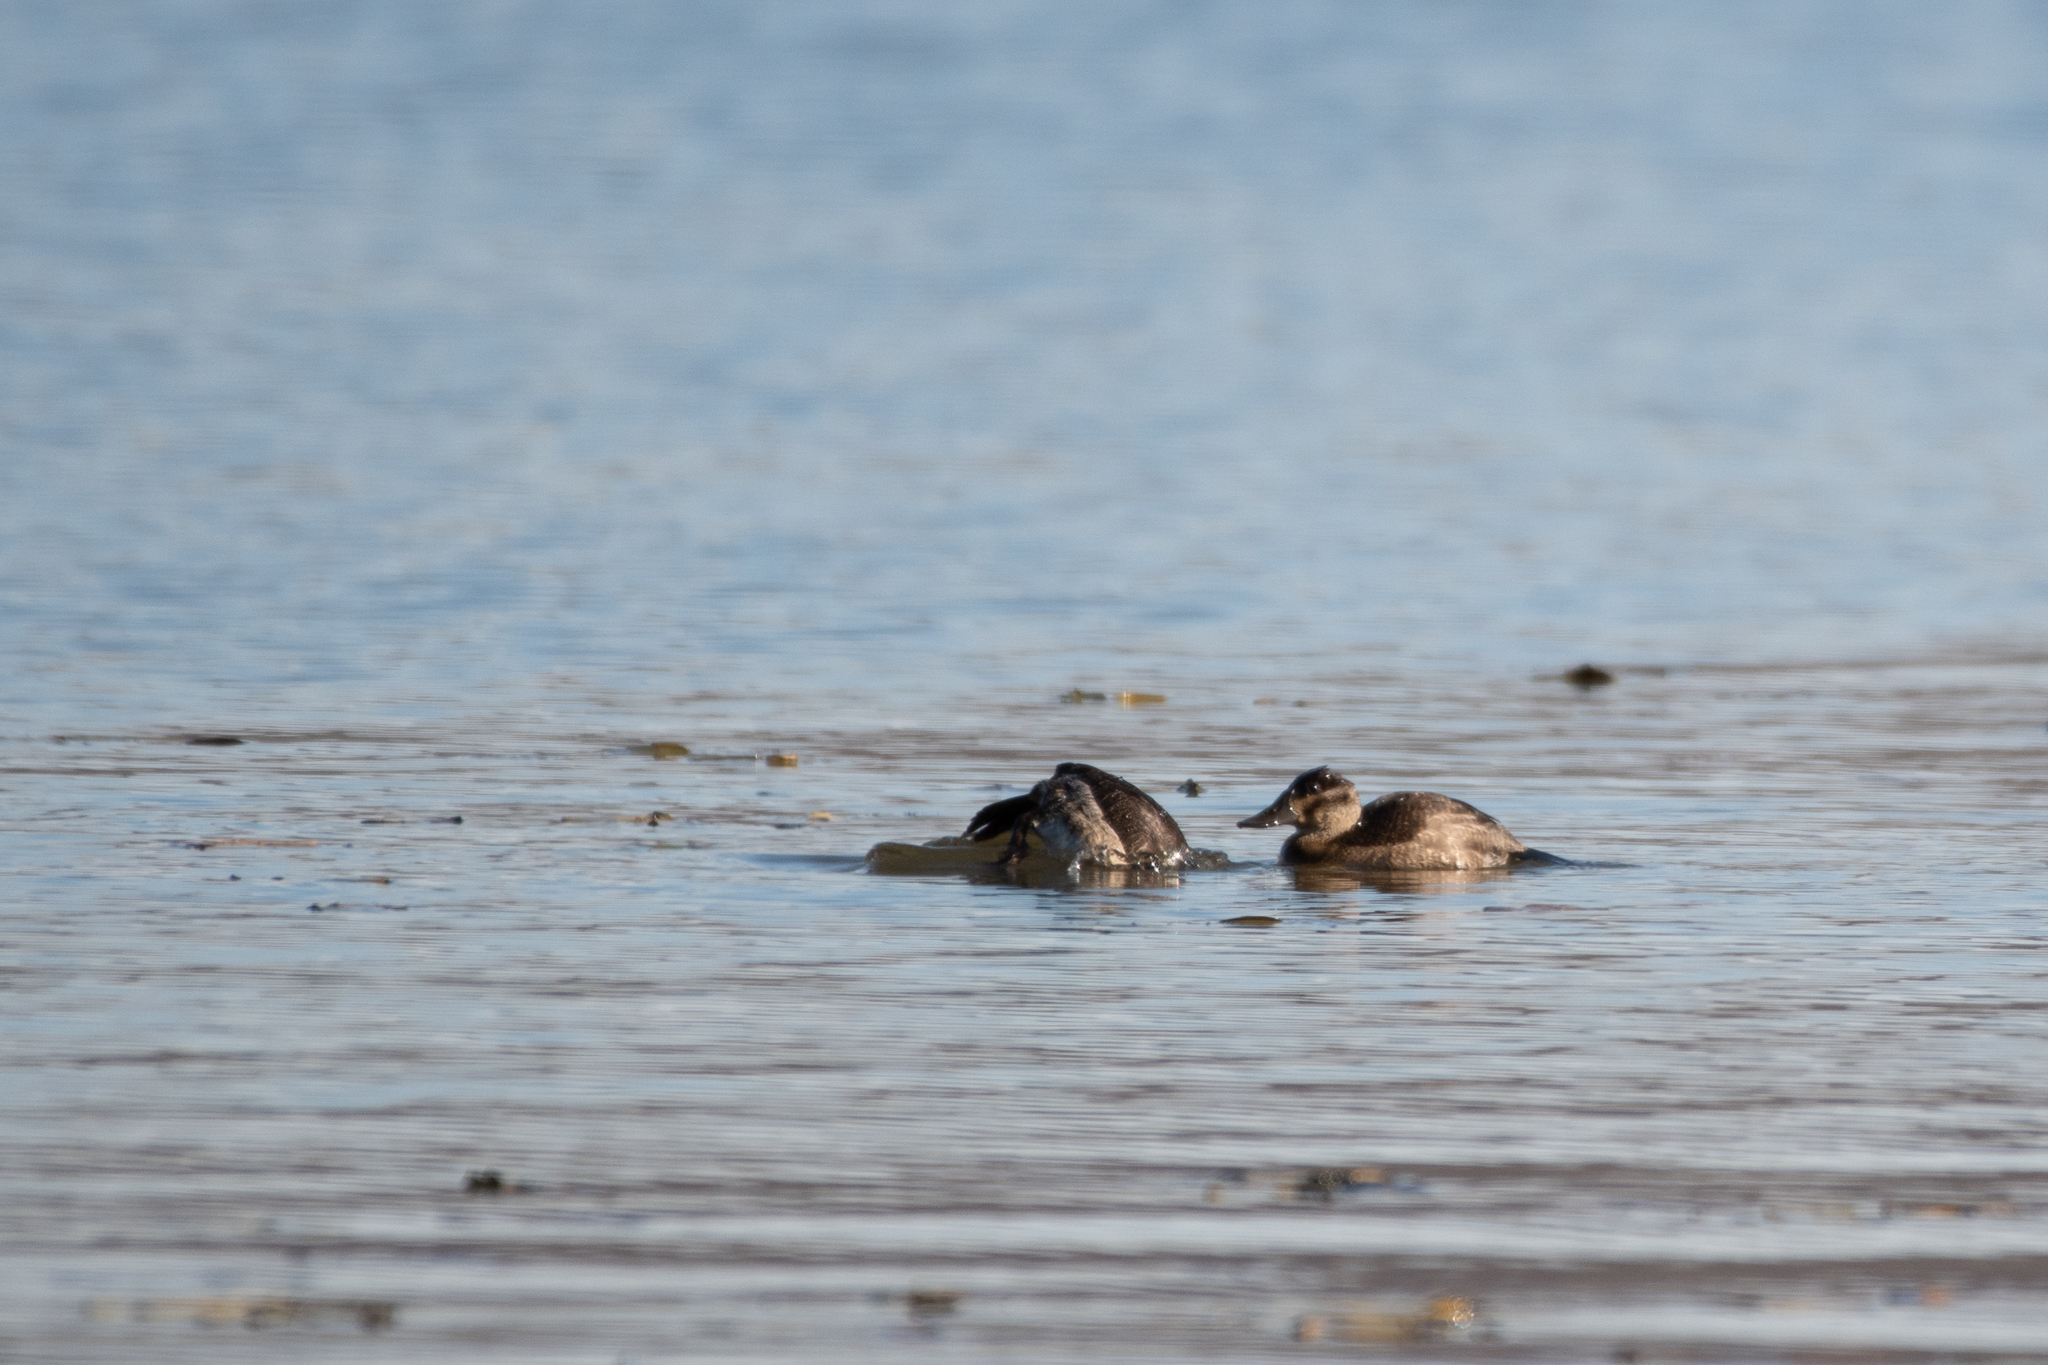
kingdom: Animalia
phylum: Chordata
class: Aves
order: Anseriformes
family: Anatidae
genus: Oxyura
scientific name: Oxyura jamaicensis
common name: Ruddy duck
